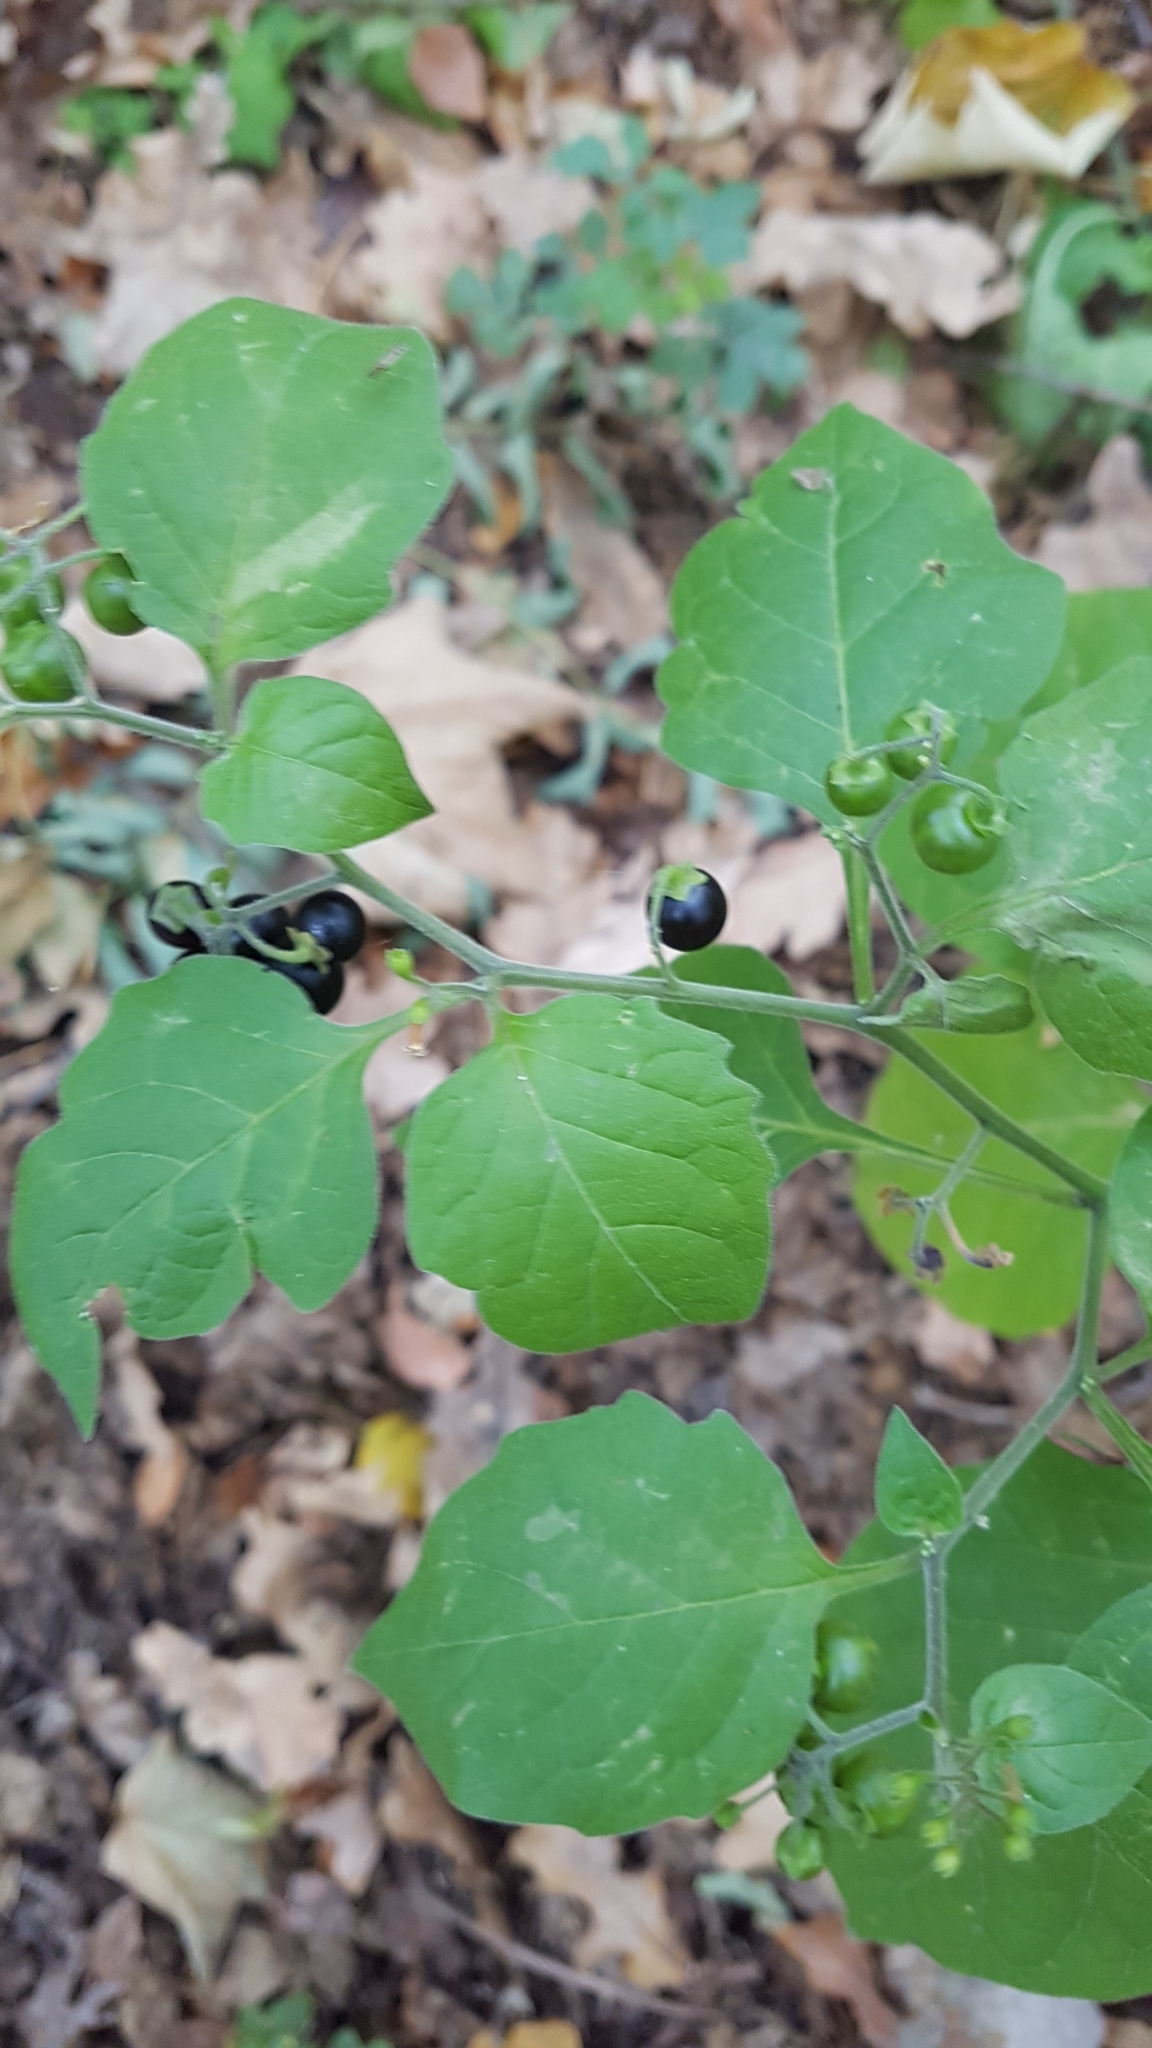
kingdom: Plantae
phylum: Tracheophyta
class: Magnoliopsida
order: Solanales
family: Solanaceae
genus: Solanum
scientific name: Solanum nigrum
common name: Black nightshade
